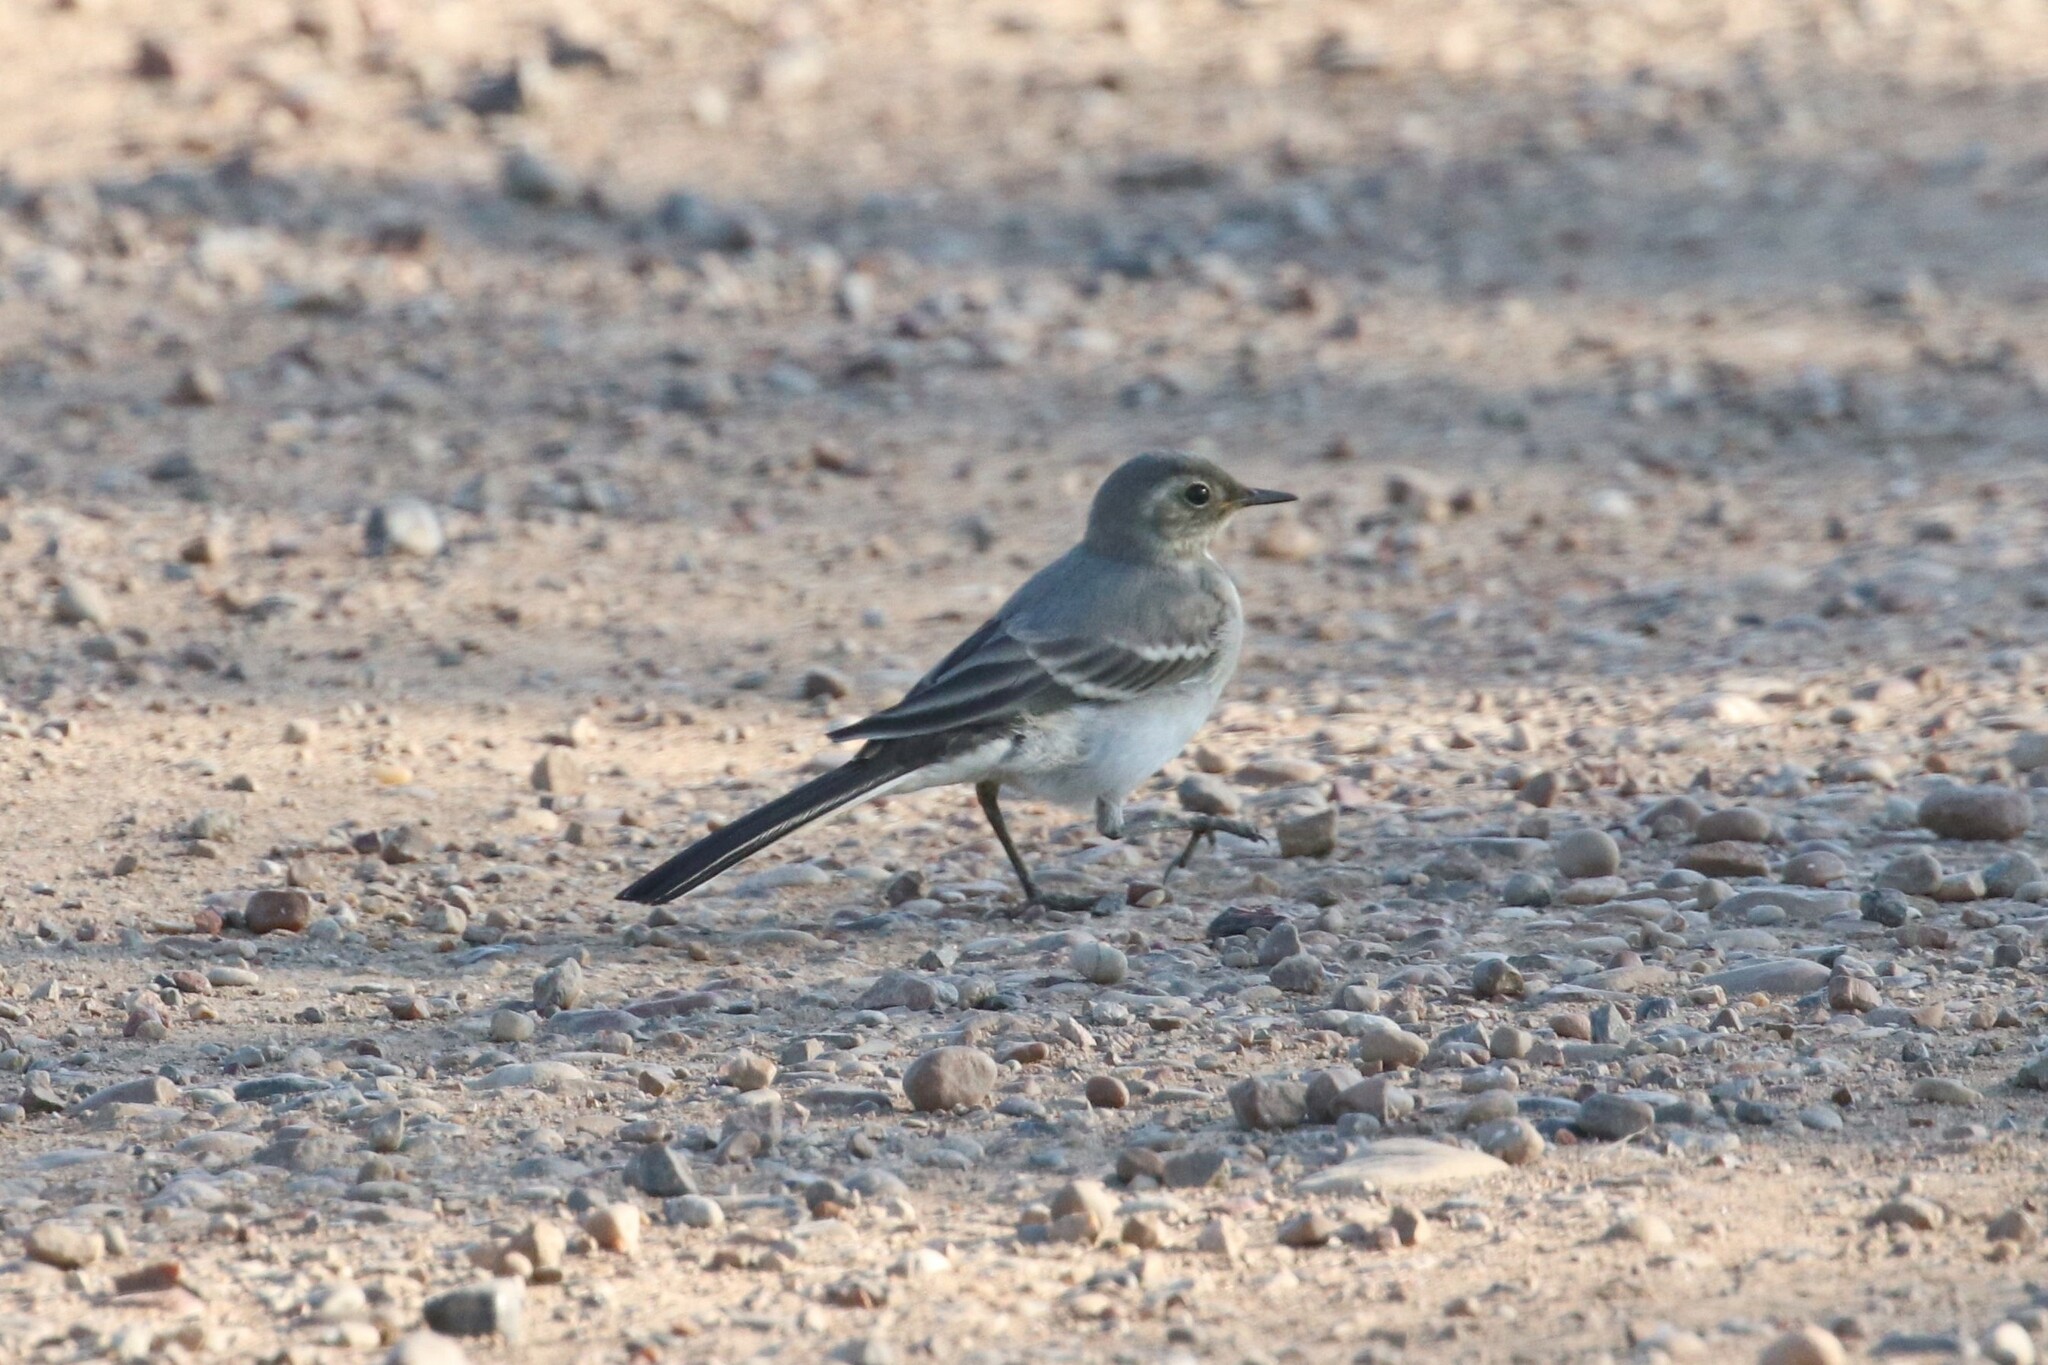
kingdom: Animalia
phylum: Chordata
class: Aves
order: Passeriformes
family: Motacillidae
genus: Motacilla
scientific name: Motacilla alba
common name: White wagtail
